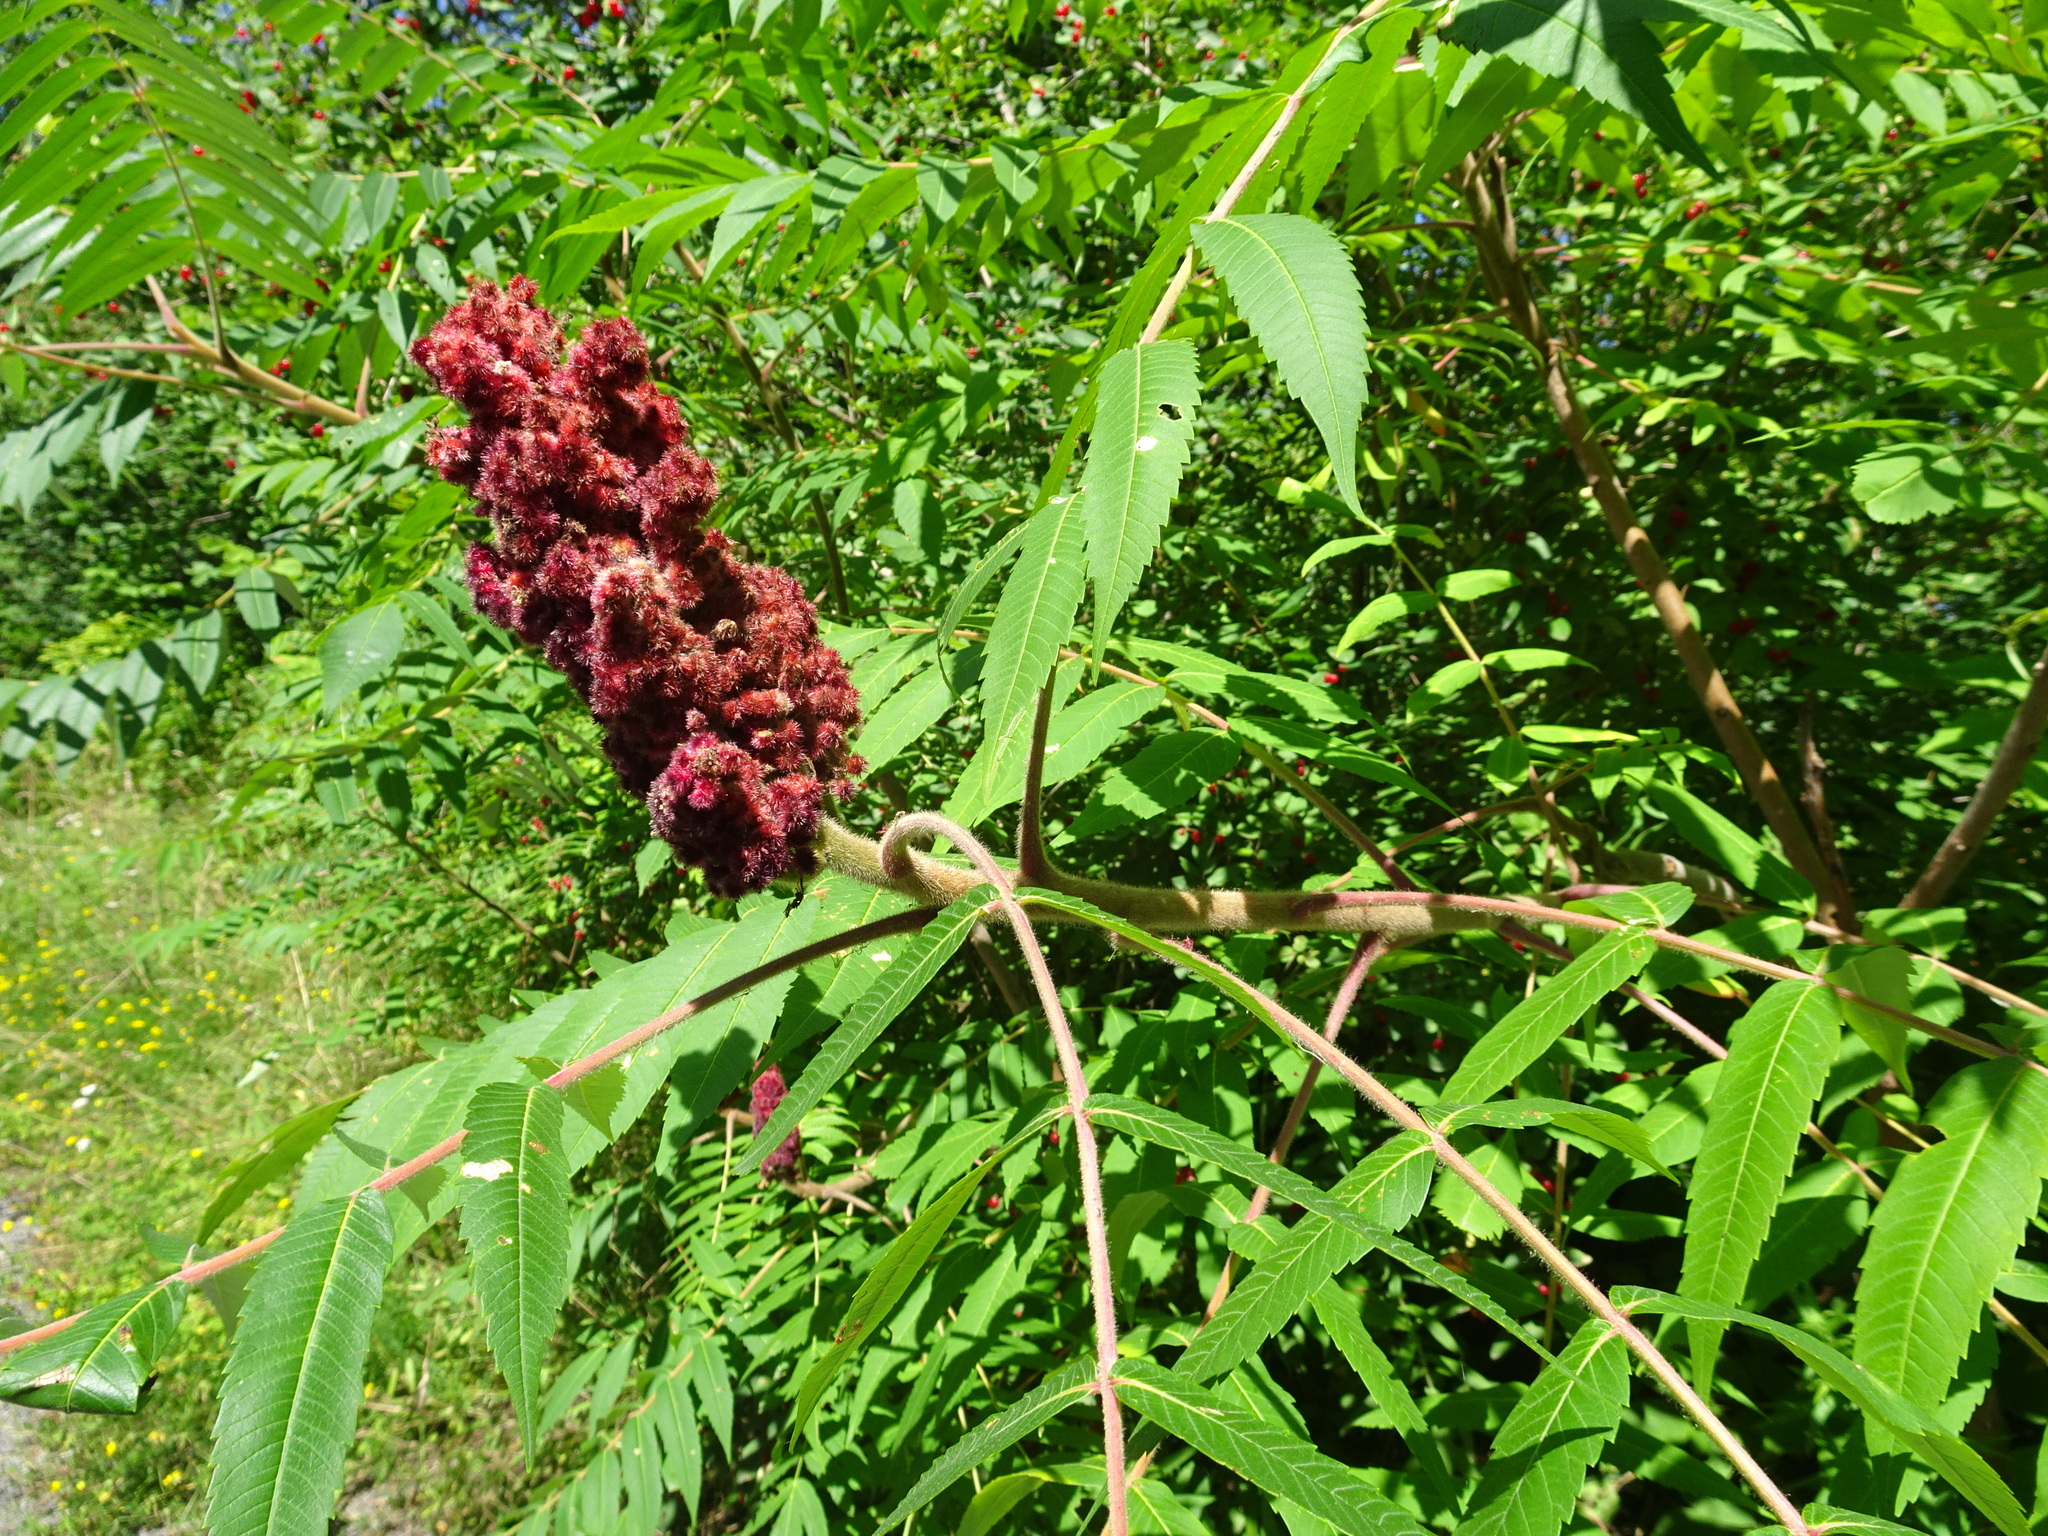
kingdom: Plantae
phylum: Tracheophyta
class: Magnoliopsida
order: Sapindales
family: Anacardiaceae
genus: Rhus
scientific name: Rhus typhina
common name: Staghorn sumac
